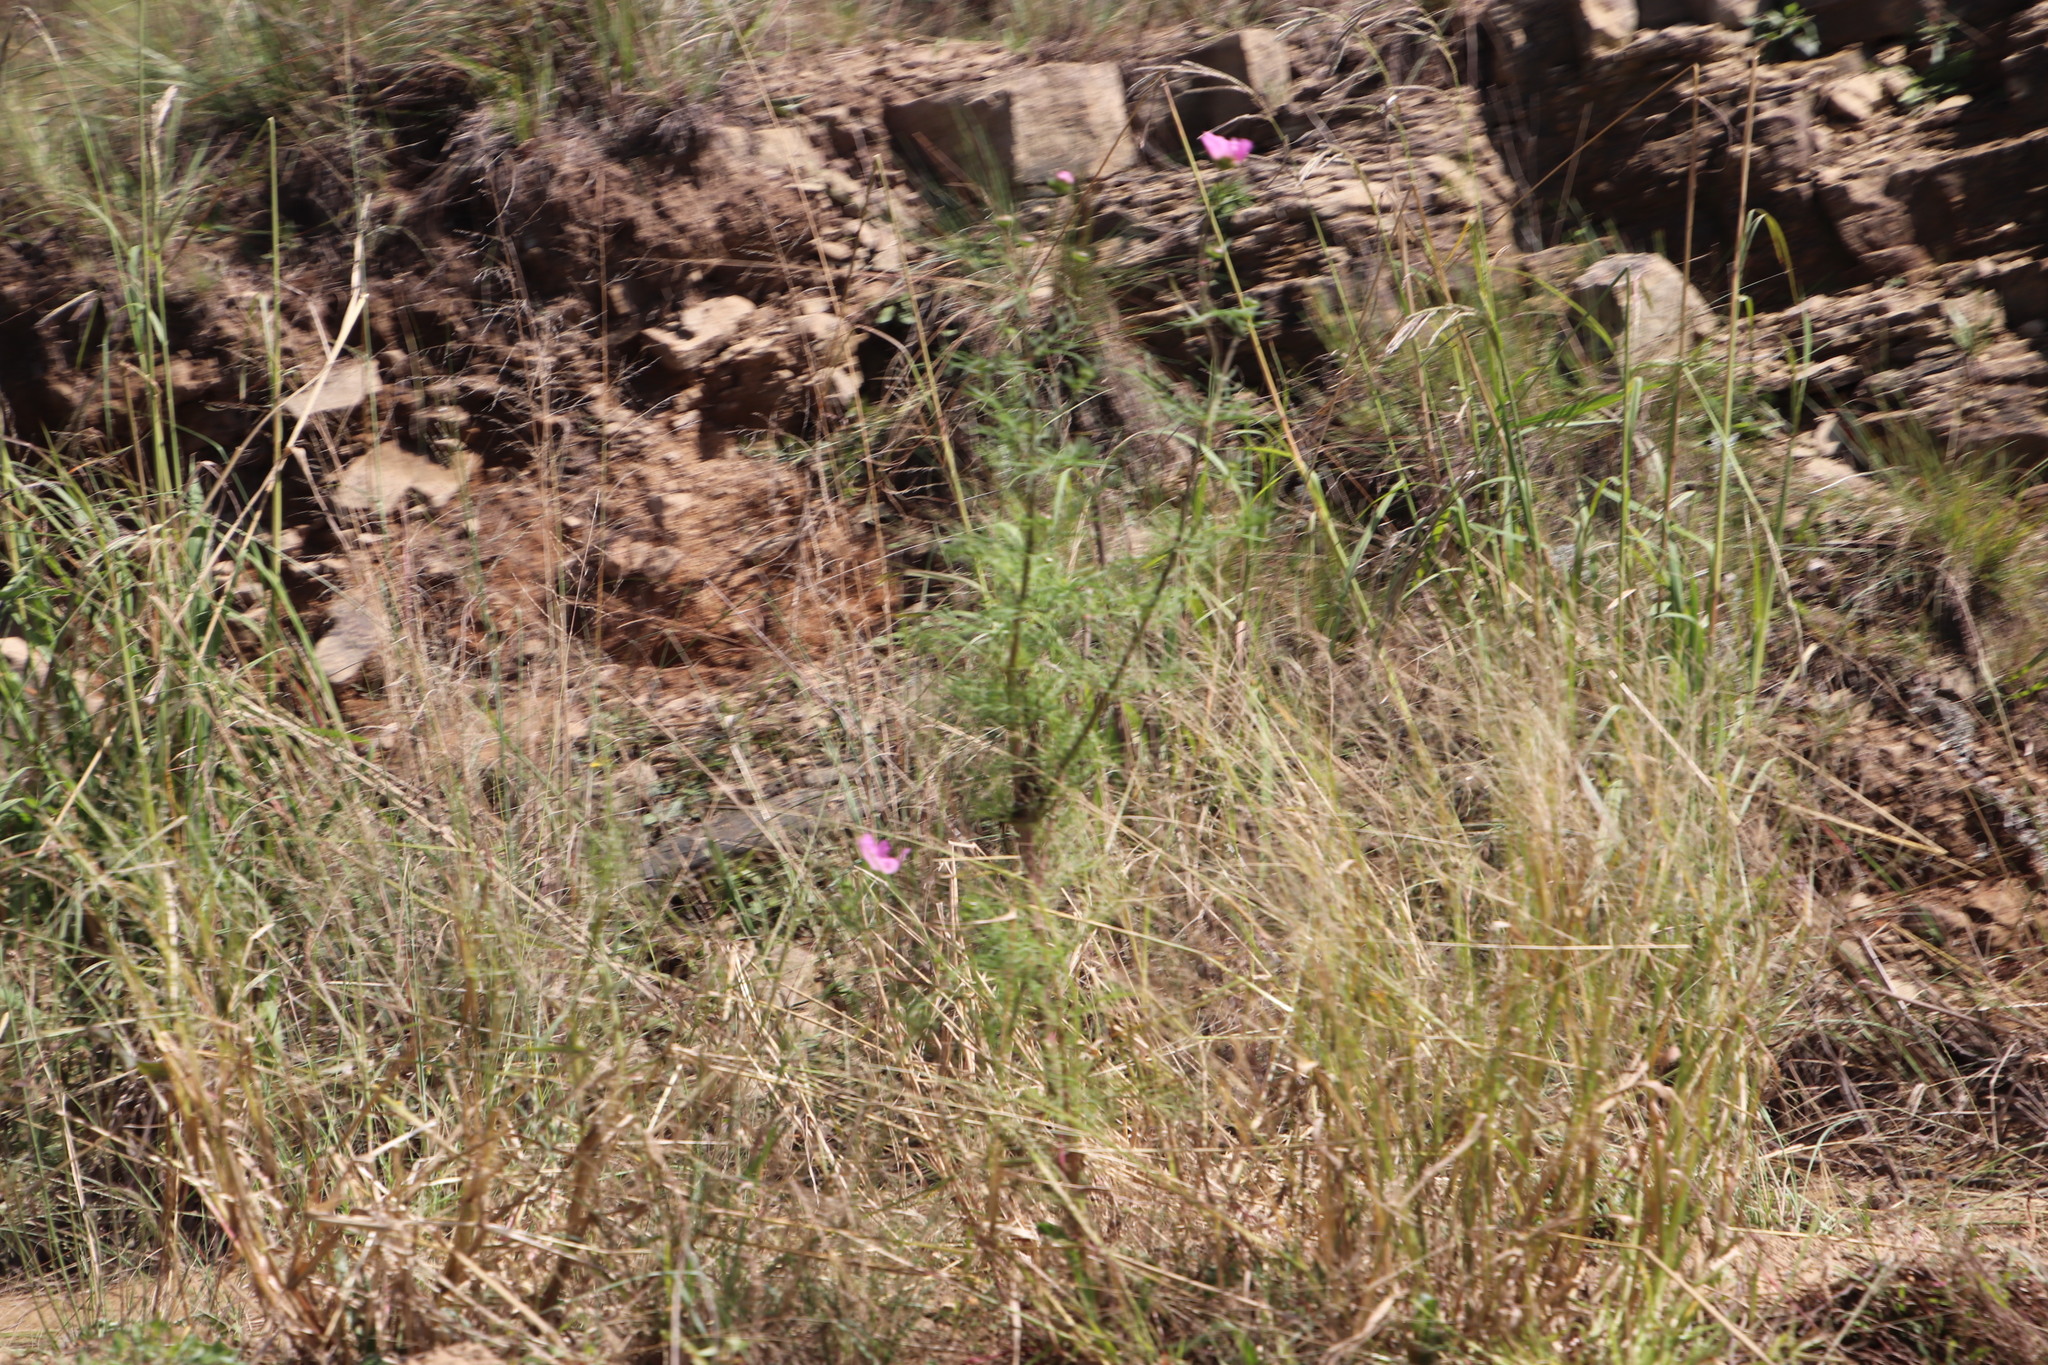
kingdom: Plantae
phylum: Tracheophyta
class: Magnoliopsida
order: Asterales
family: Asteraceae
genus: Cosmos
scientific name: Cosmos bipinnatus
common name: Garden cosmos
